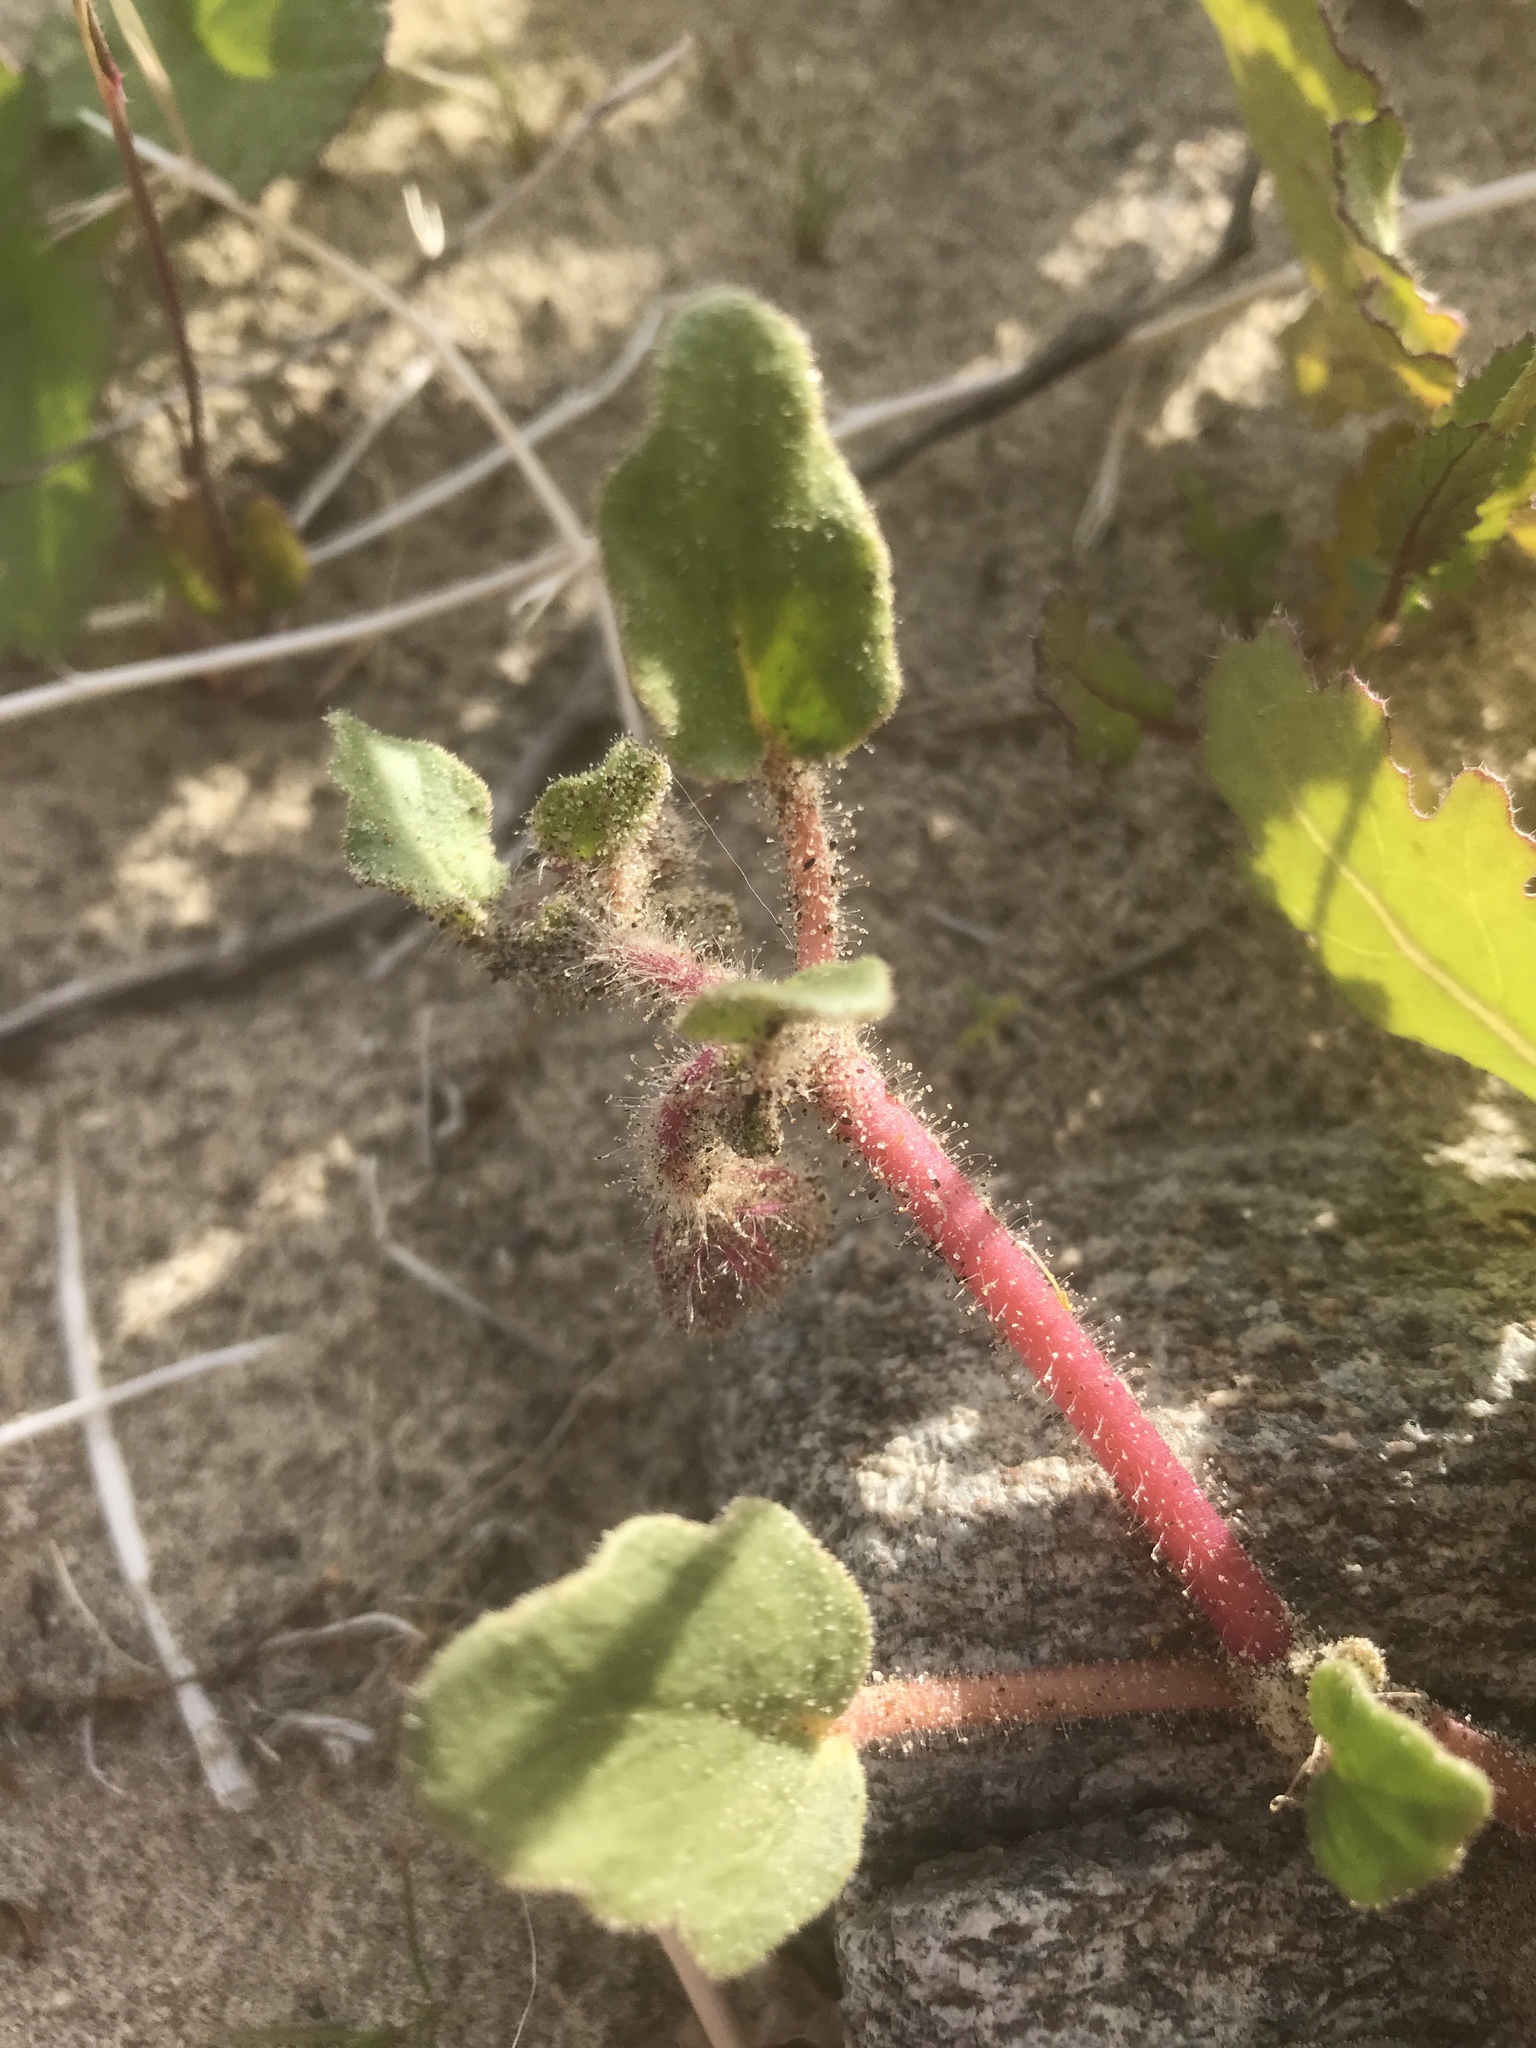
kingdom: Plantae
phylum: Tracheophyta
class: Magnoliopsida
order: Caryophyllales
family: Nyctaginaceae
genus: Abronia
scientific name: Abronia villosa
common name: Desert sand-verbena
